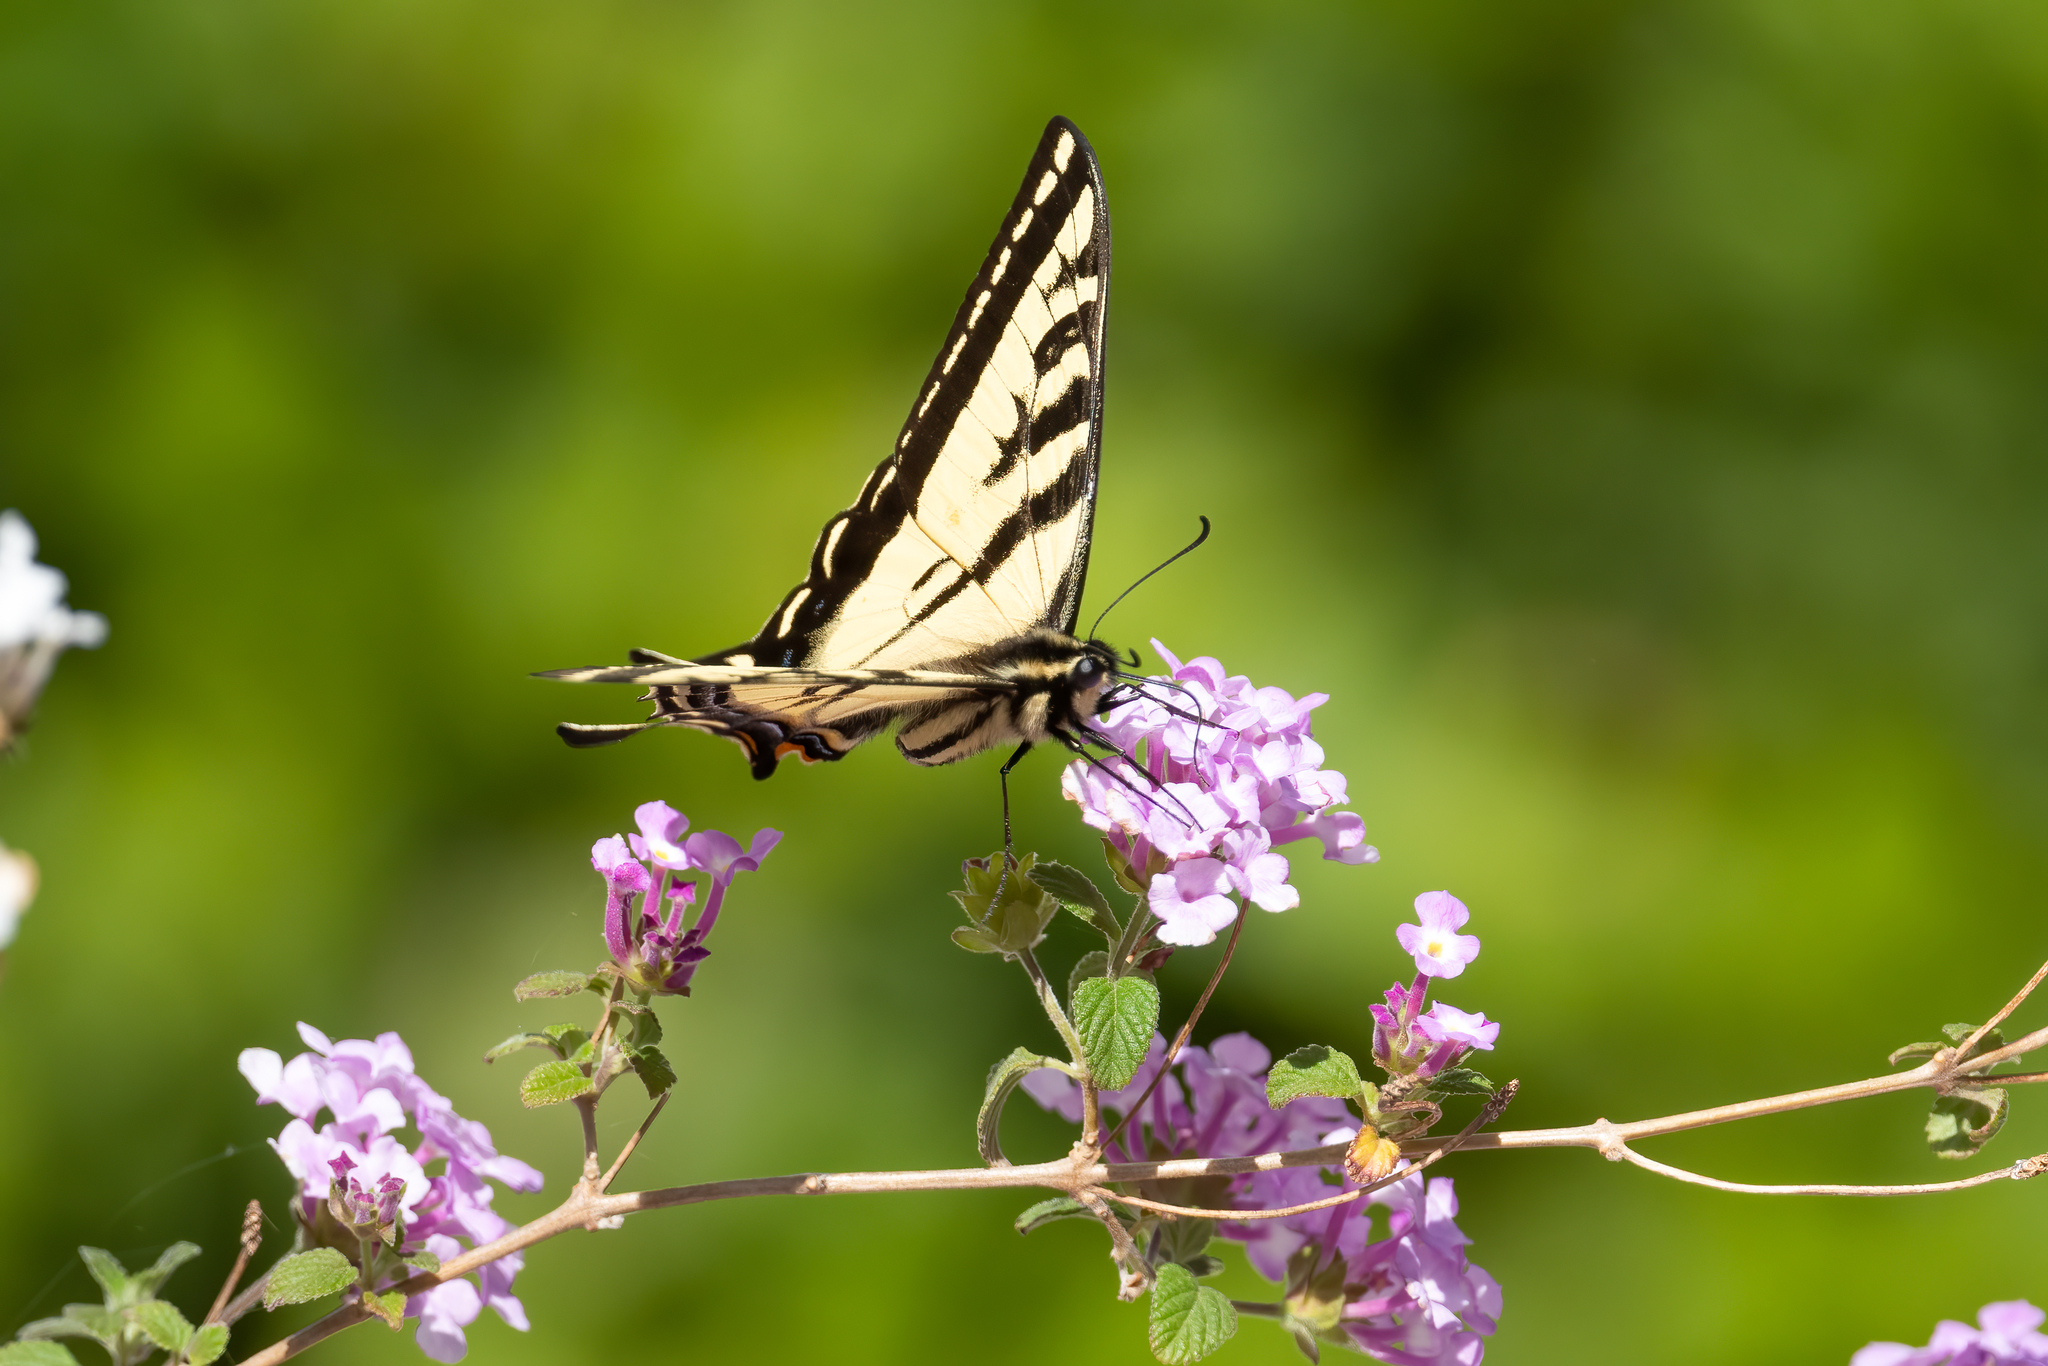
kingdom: Animalia
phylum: Arthropoda
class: Insecta
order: Lepidoptera
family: Papilionidae
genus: Papilio
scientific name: Papilio rutulus
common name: Western tiger swallowtail
